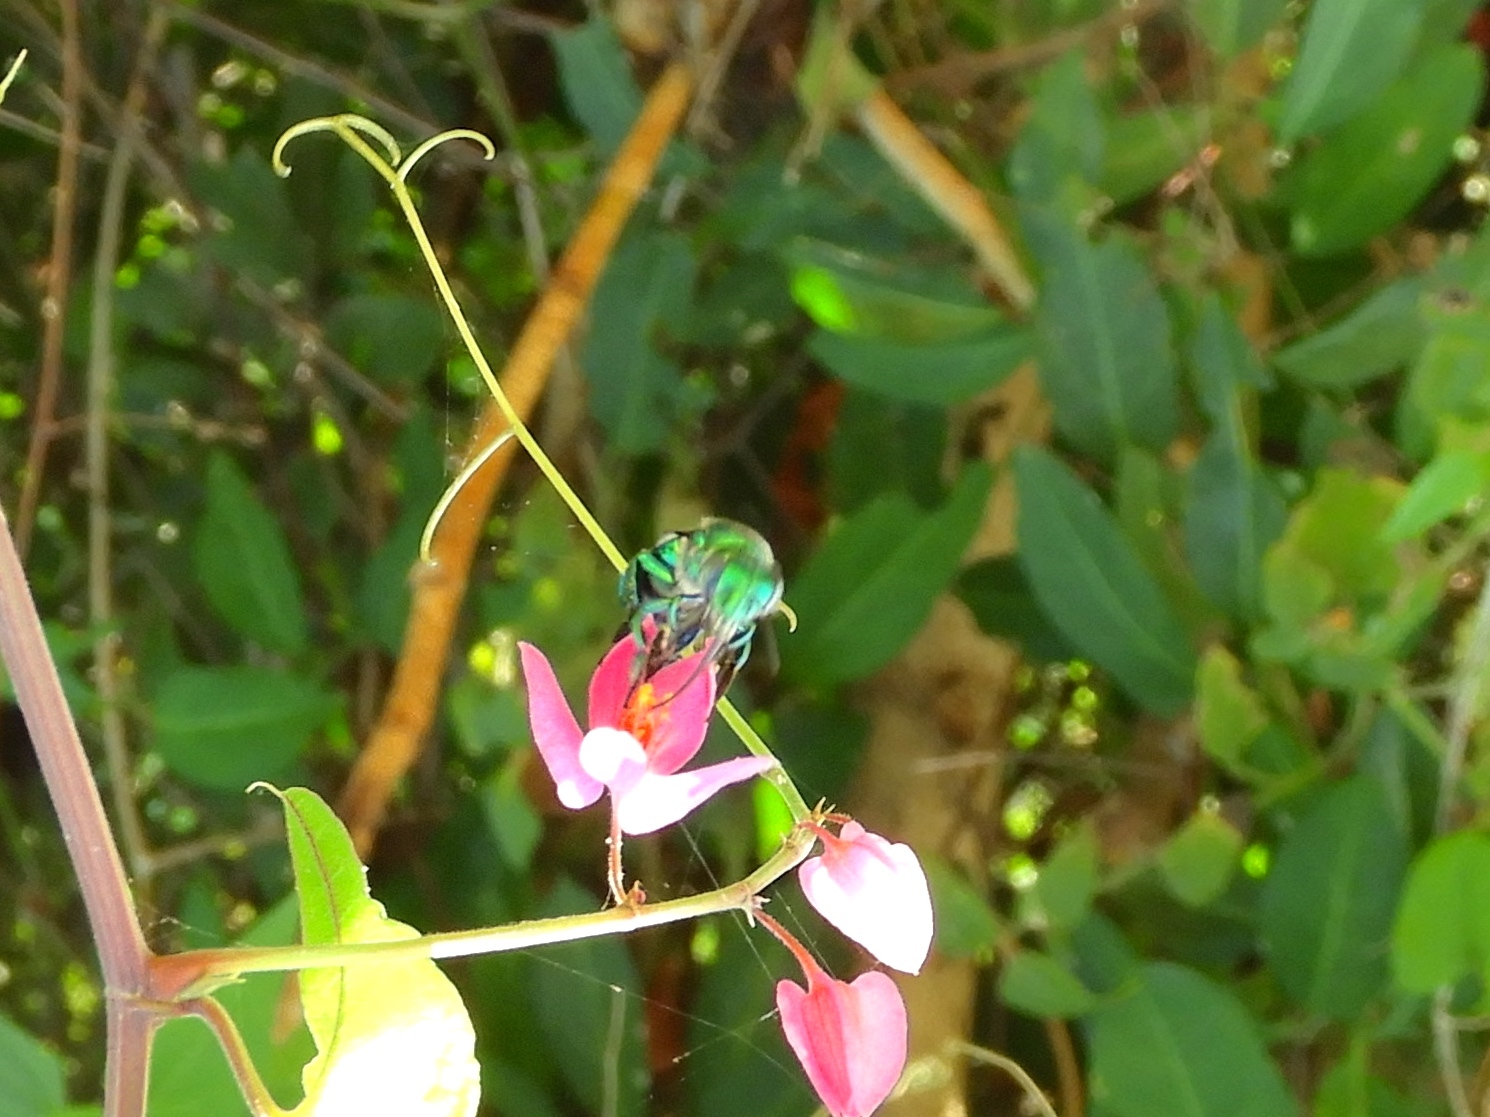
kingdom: Animalia
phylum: Arthropoda
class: Insecta
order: Hymenoptera
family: Apidae
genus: Euglossa
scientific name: Euglossa
